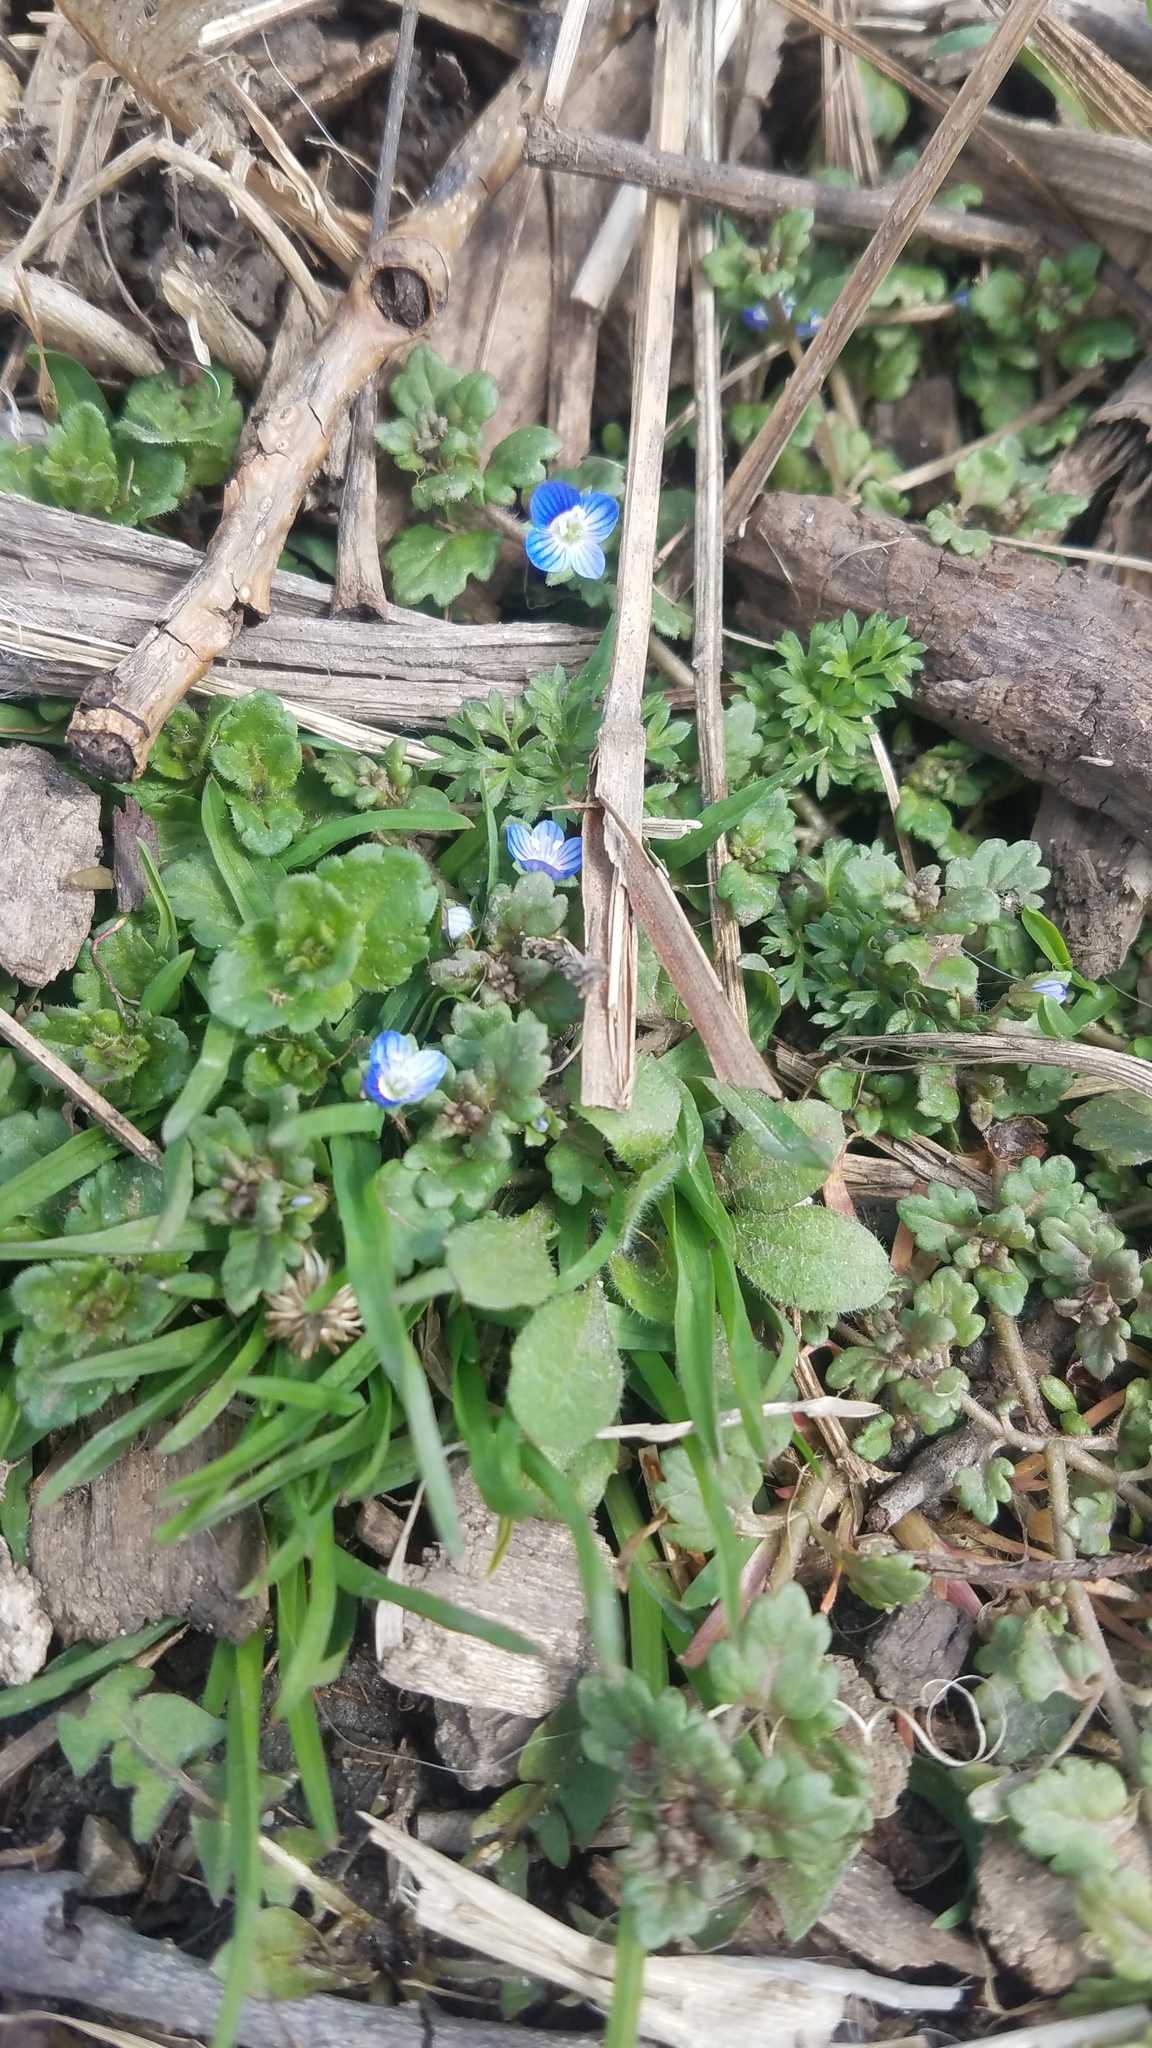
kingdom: Plantae
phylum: Tracheophyta
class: Magnoliopsida
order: Lamiales
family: Plantaginaceae
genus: Veronica
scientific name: Veronica polita
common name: Grey field-speedwell
